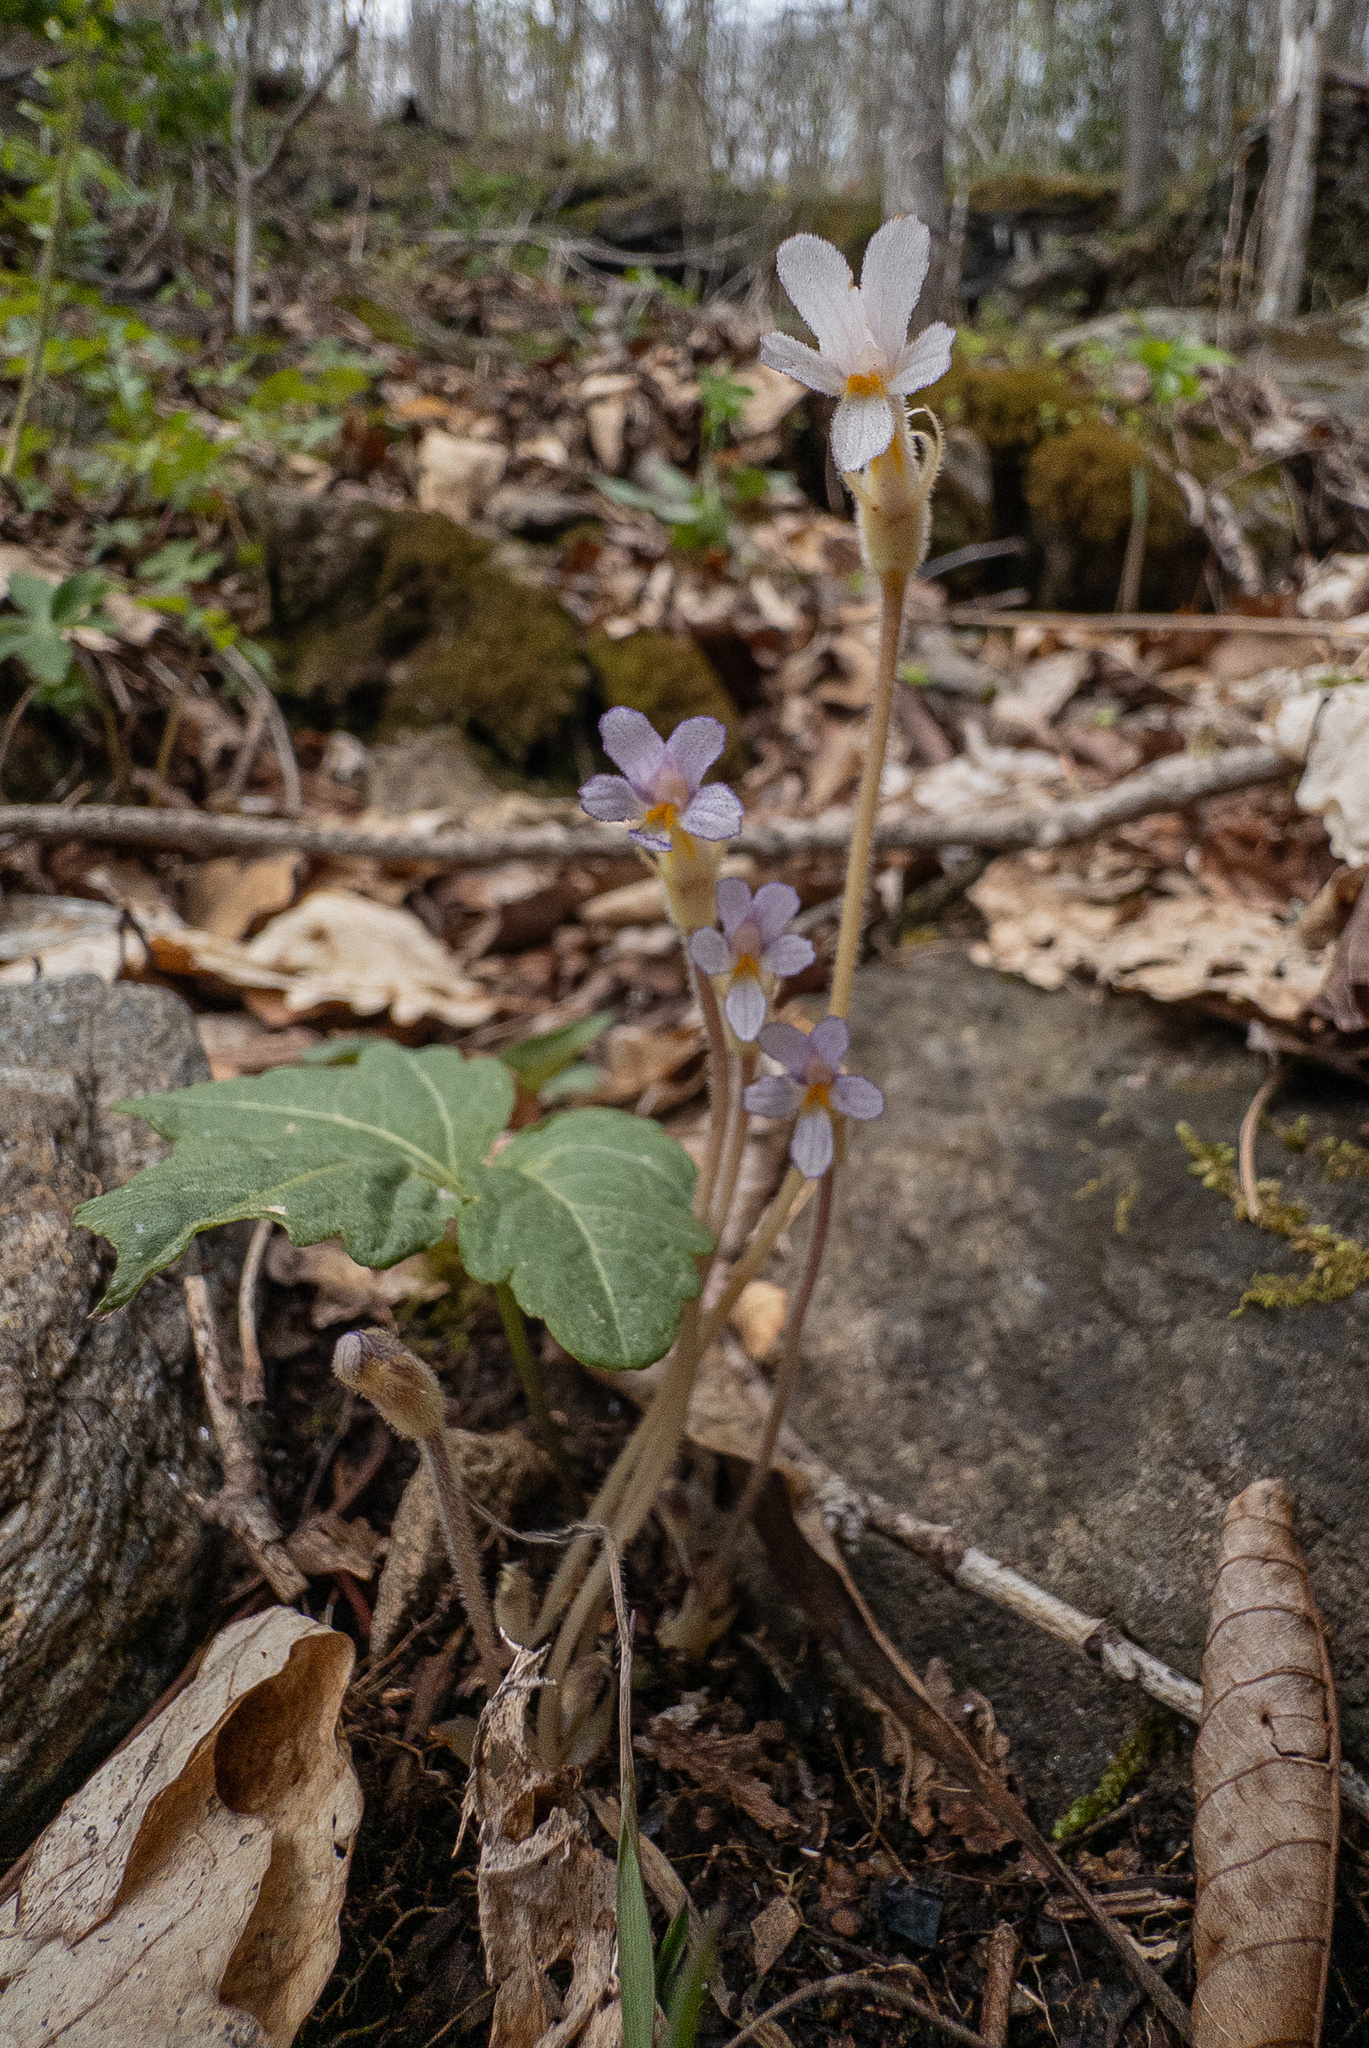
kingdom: Plantae
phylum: Tracheophyta
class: Magnoliopsida
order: Lamiales
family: Orobanchaceae
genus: Aphyllon
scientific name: Aphyllon uniflorum
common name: One-flowered broomrape
